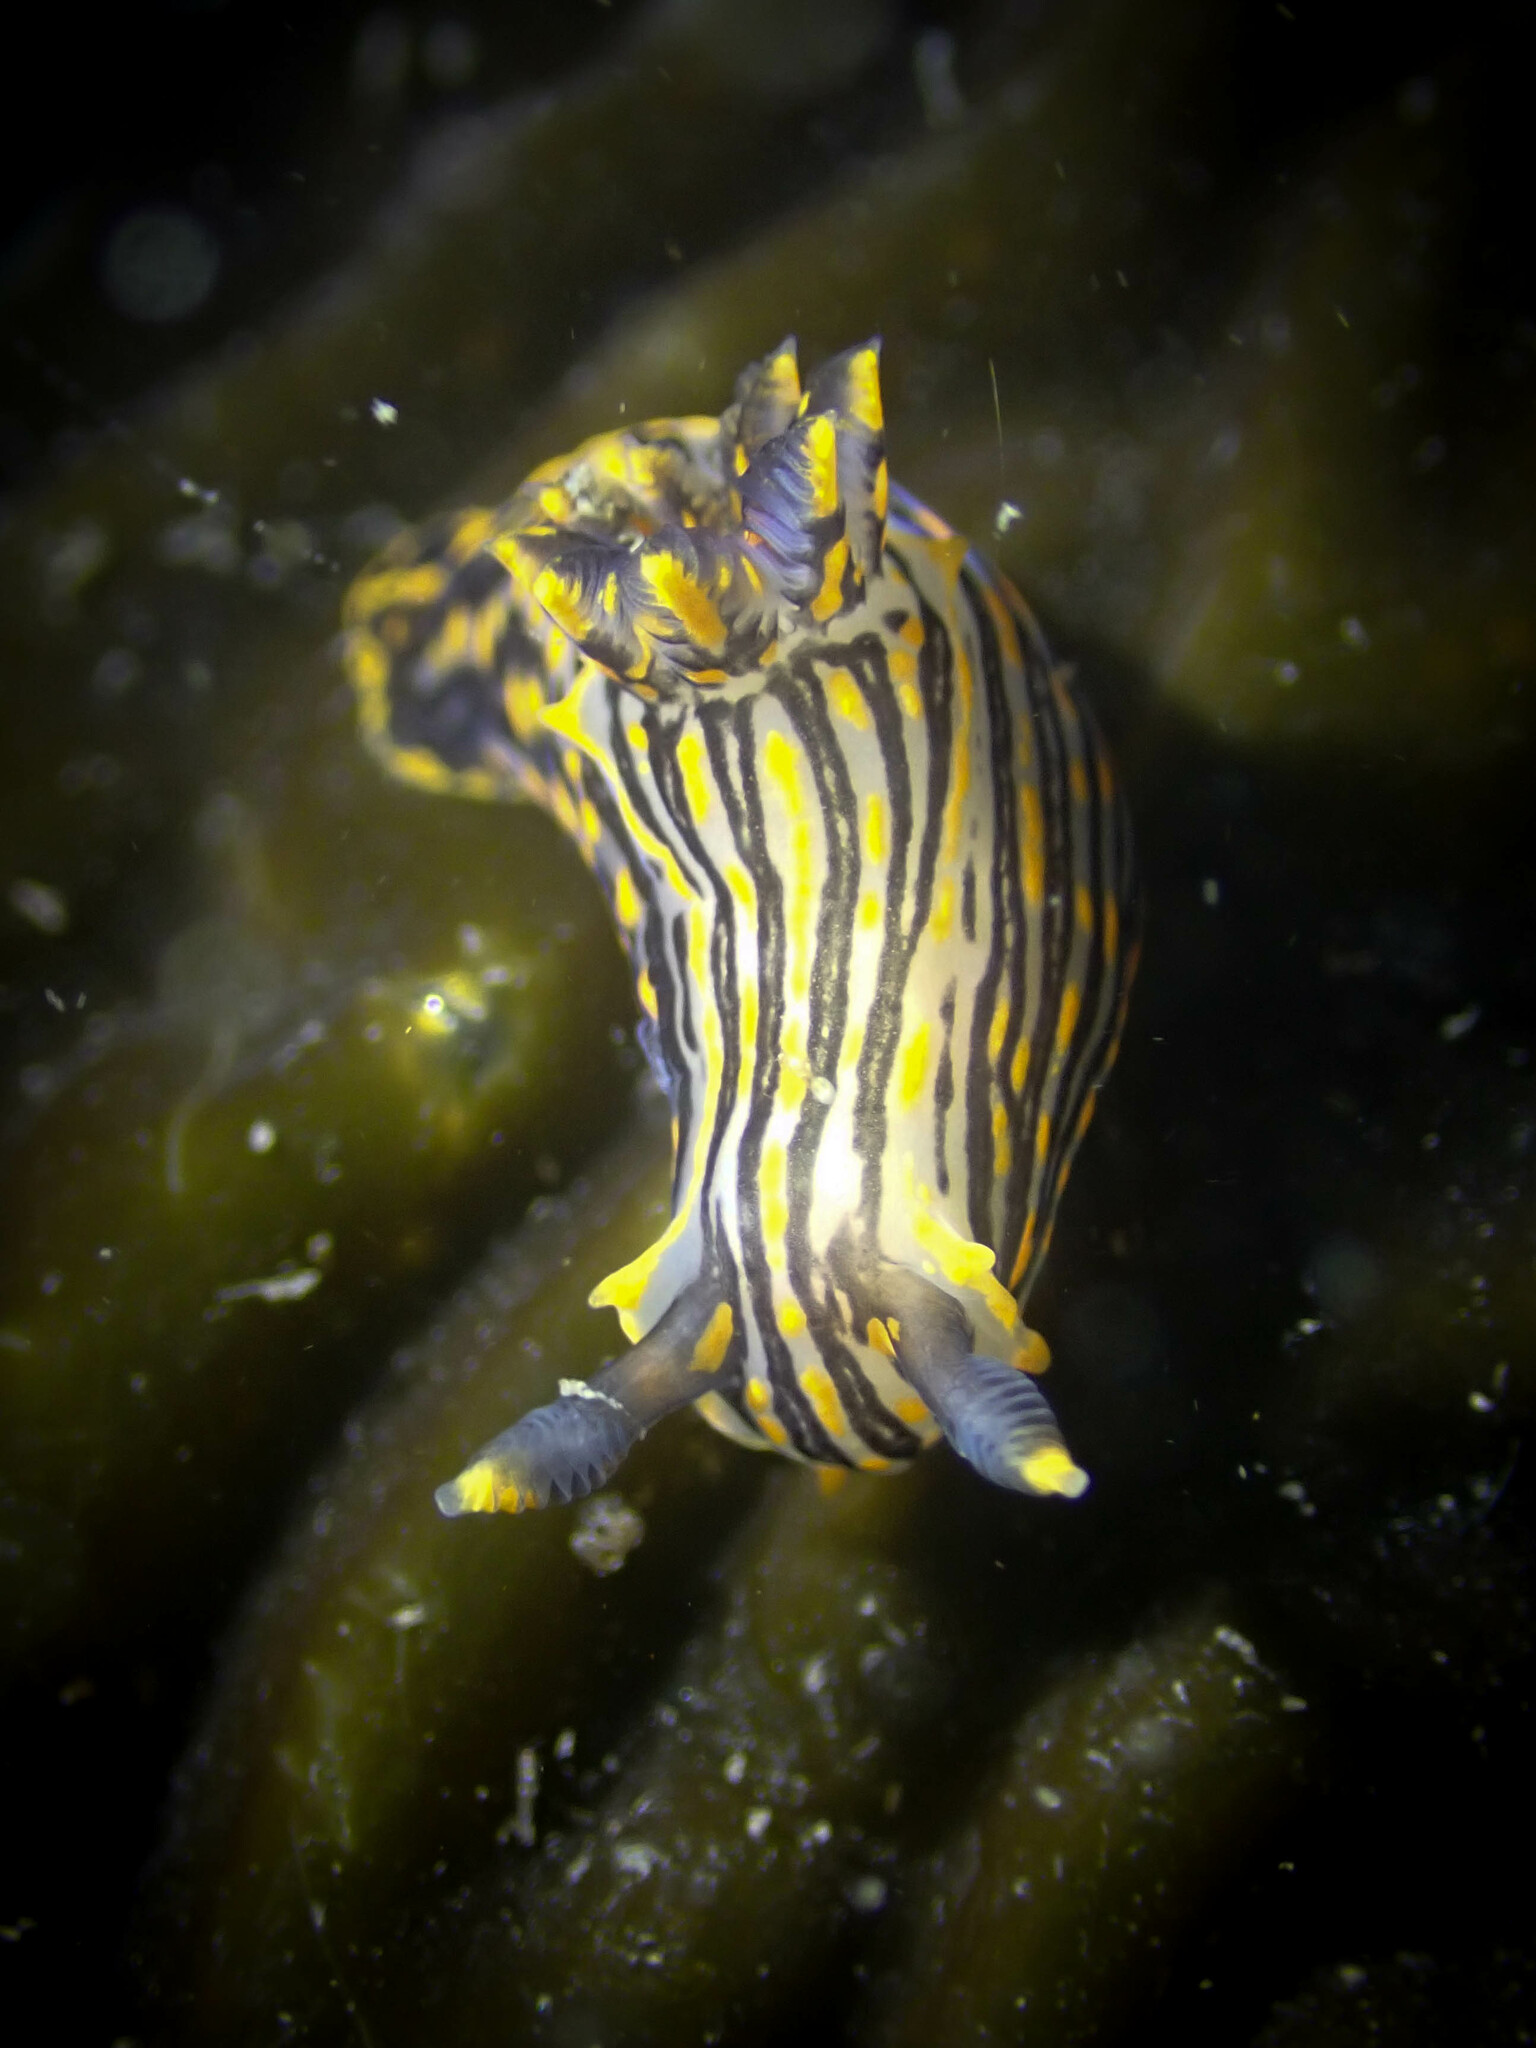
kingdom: Animalia
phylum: Mollusca
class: Gastropoda
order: Nudibranchia
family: Polyceridae
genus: Polycera
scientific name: Polycera atra
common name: Orange-spike polycera
